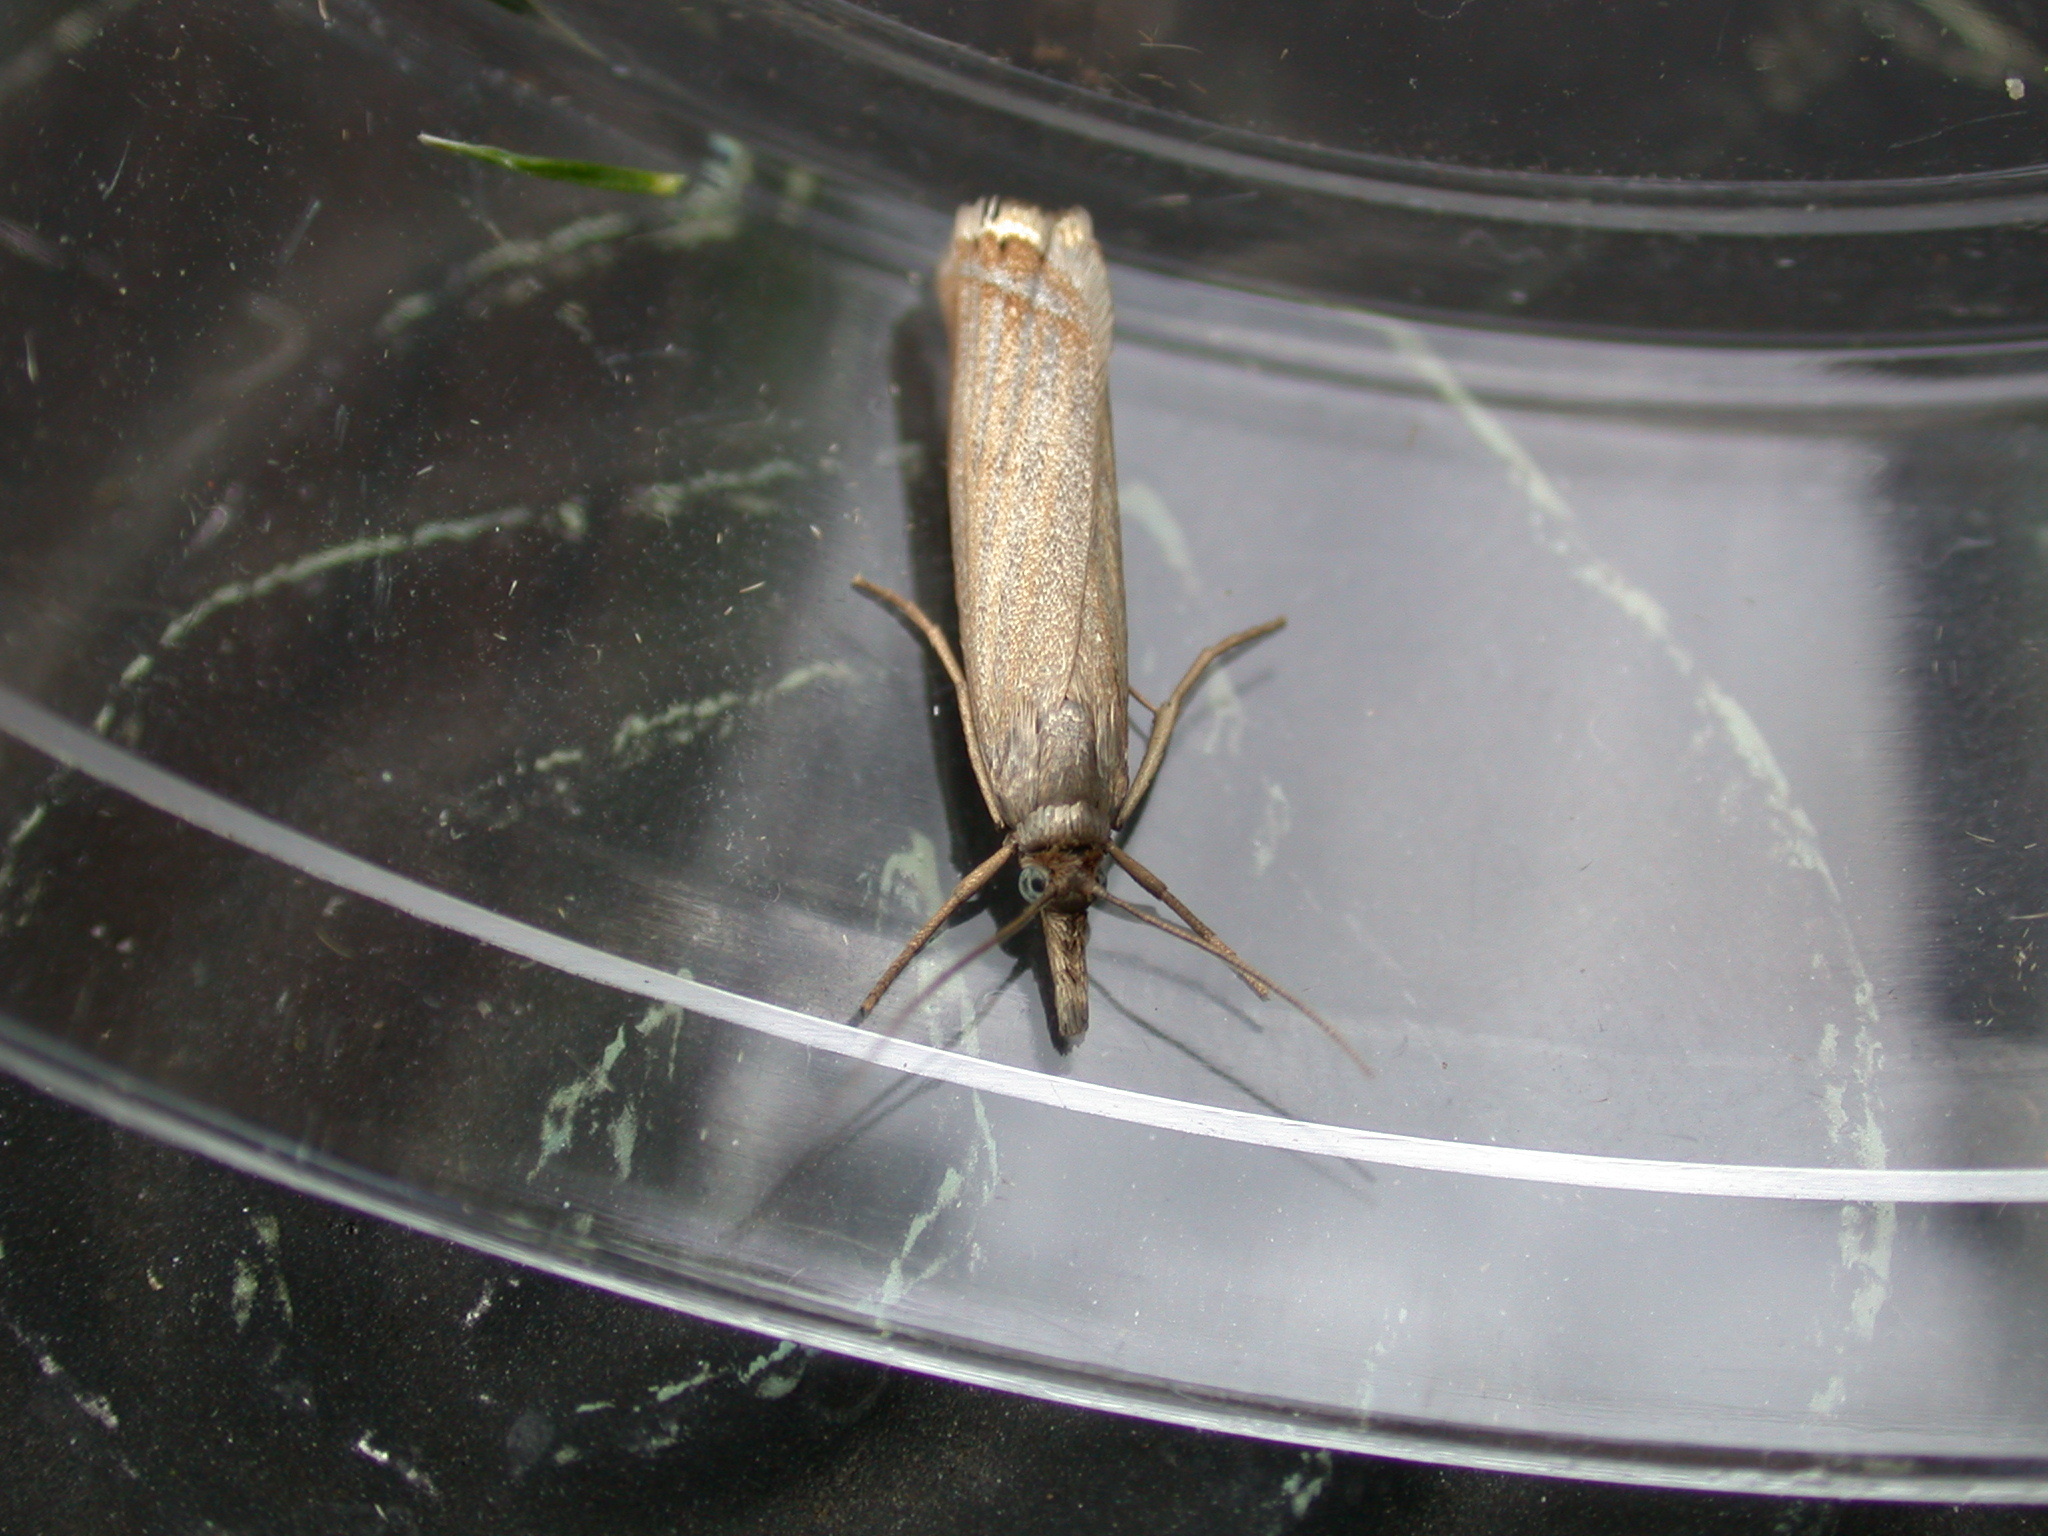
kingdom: Animalia
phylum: Arthropoda
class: Insecta
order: Lepidoptera
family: Crambidae
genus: Chrysoteuchia
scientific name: Chrysoteuchia culmella
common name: Garden grass-veneer
